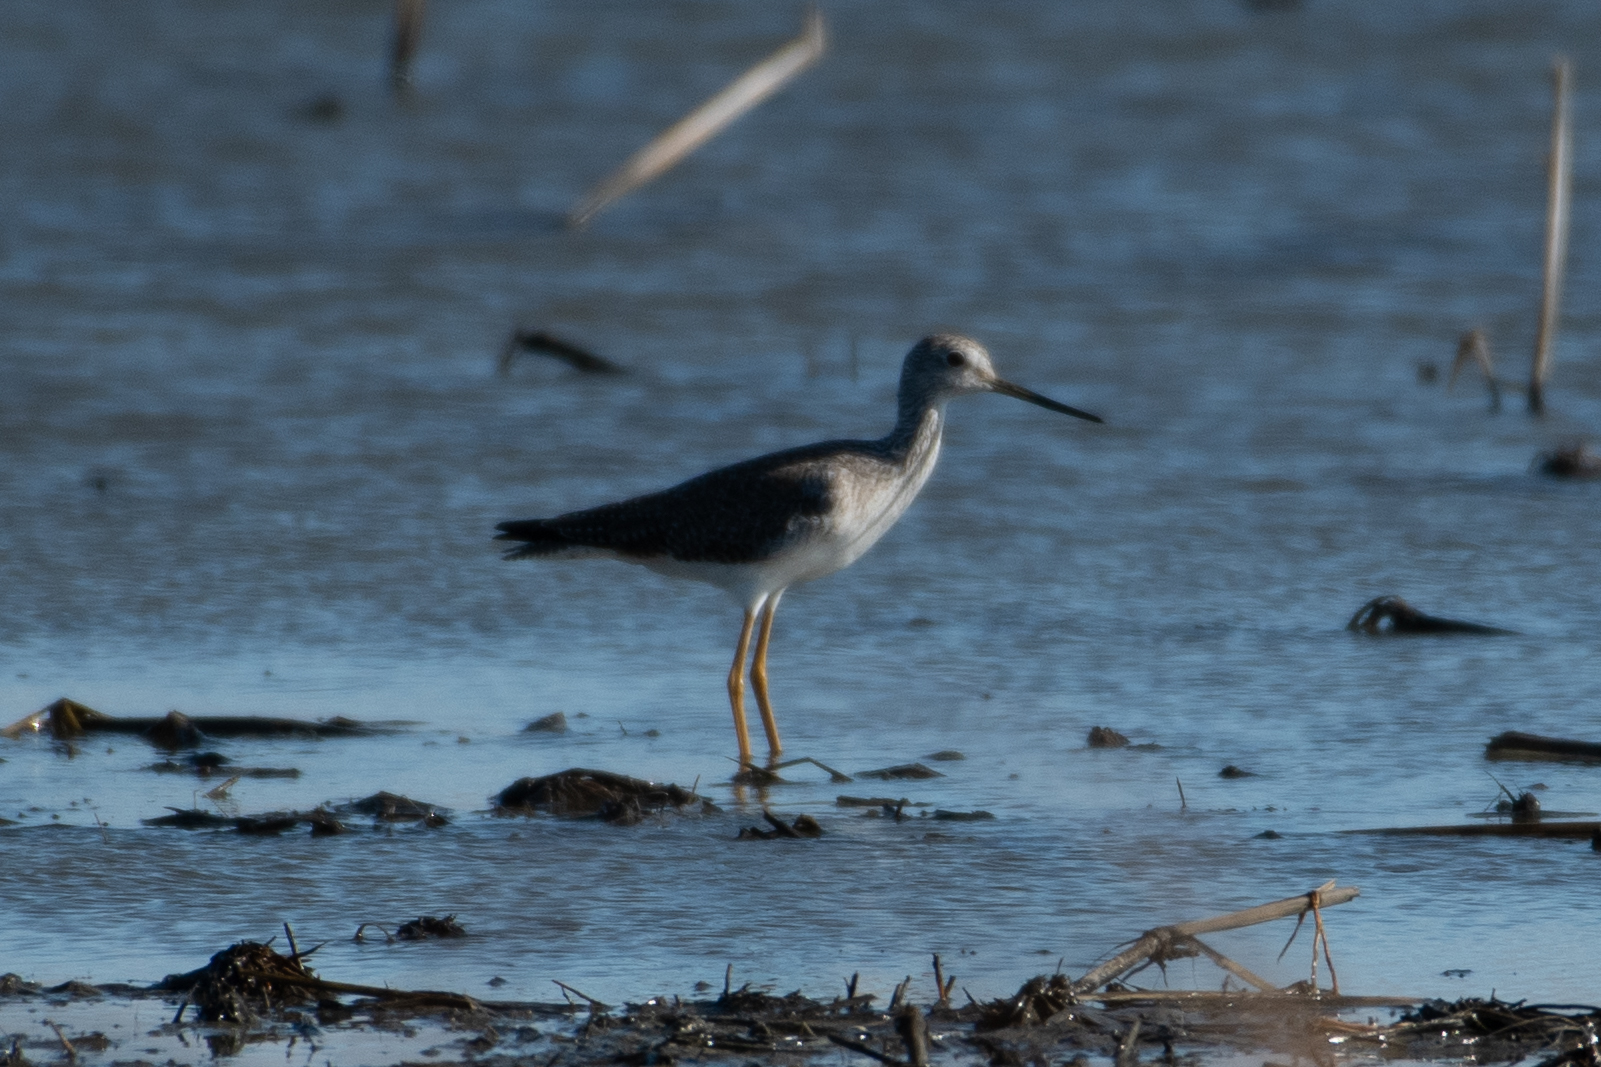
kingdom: Animalia
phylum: Chordata
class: Aves
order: Charadriiformes
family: Scolopacidae
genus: Tringa
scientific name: Tringa melanoleuca
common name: Greater yellowlegs
